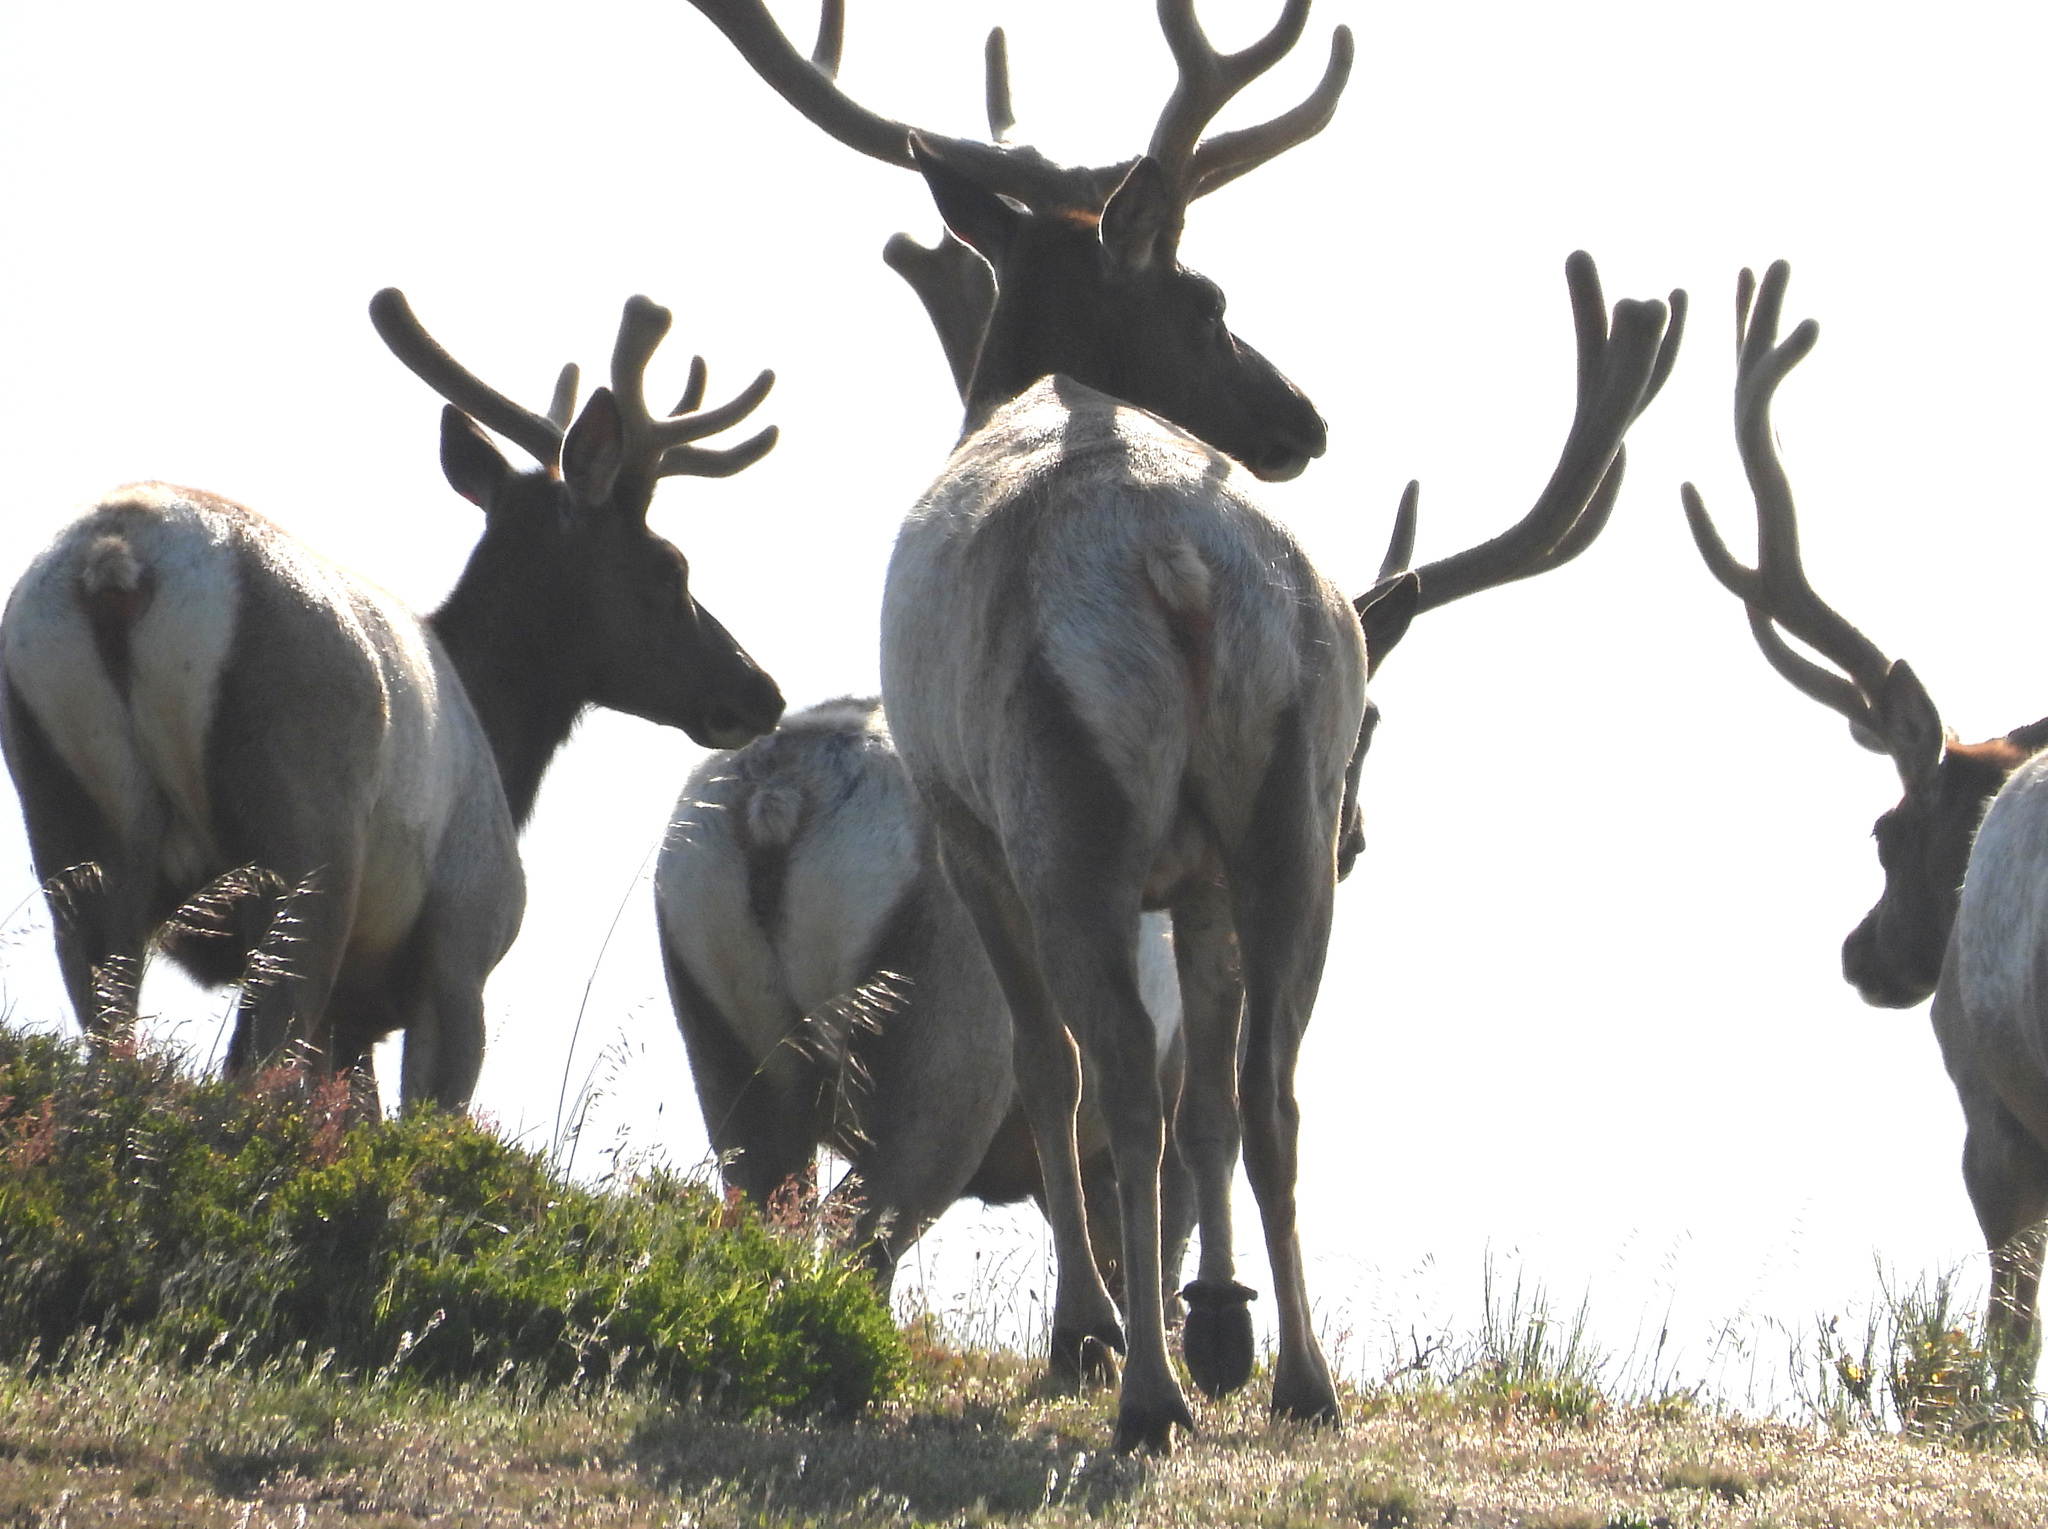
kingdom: Animalia
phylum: Chordata
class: Mammalia
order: Artiodactyla
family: Cervidae
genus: Cervus
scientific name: Cervus elaphus
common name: Red deer
